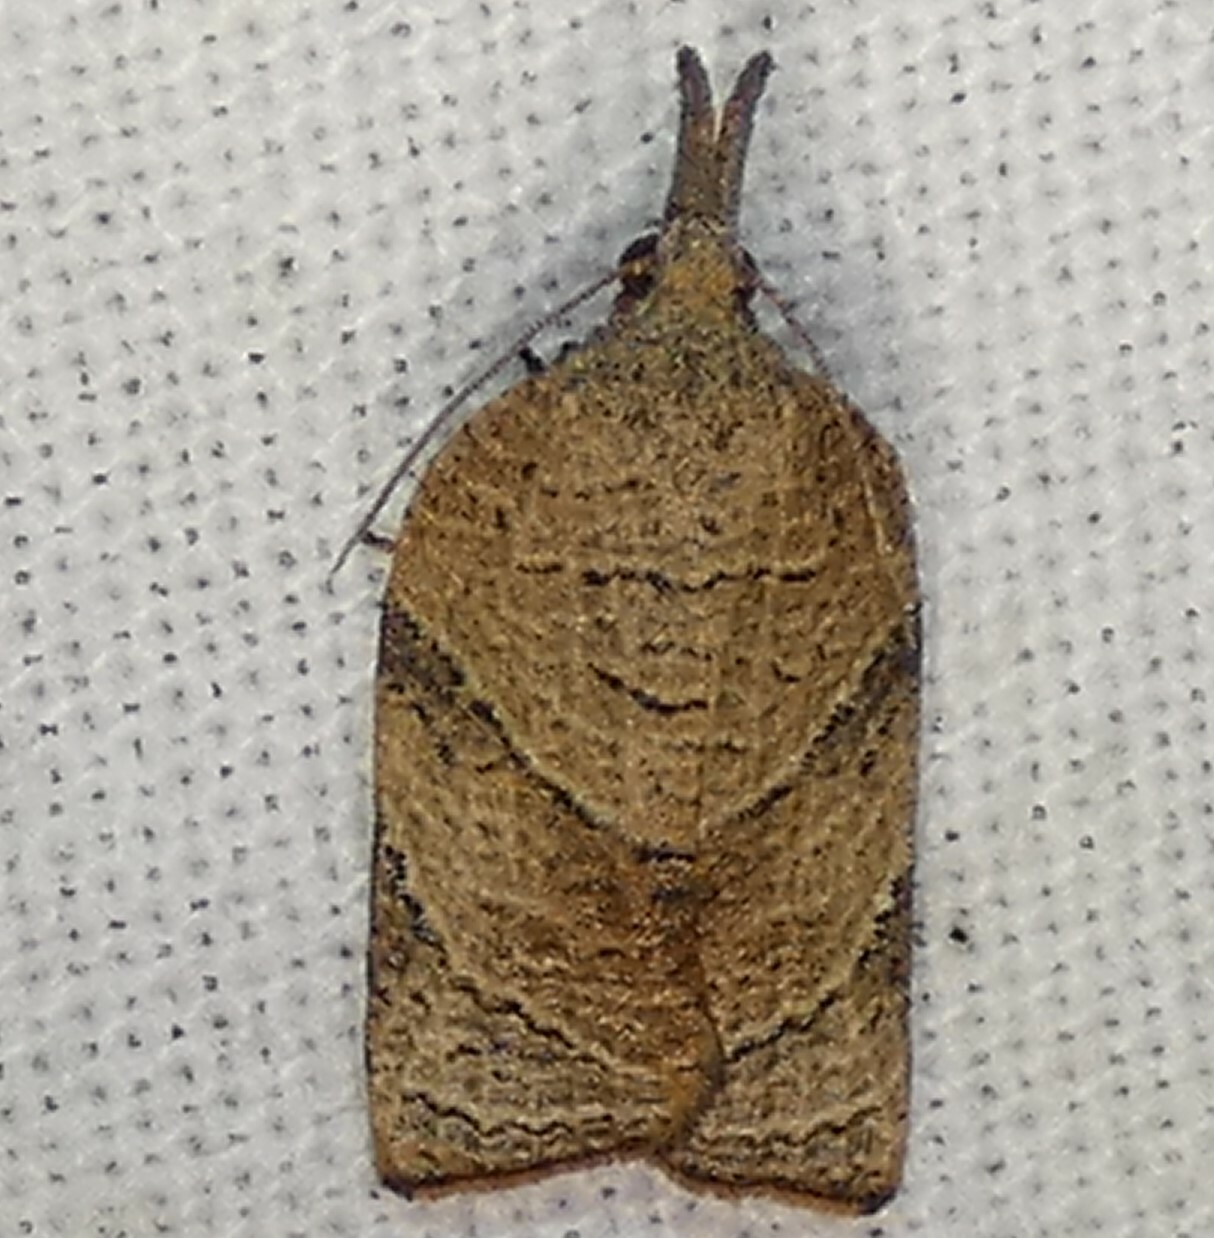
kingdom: Animalia
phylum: Arthropoda
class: Insecta
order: Lepidoptera
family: Tortricidae
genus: Platynota
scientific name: Platynota rostrana
